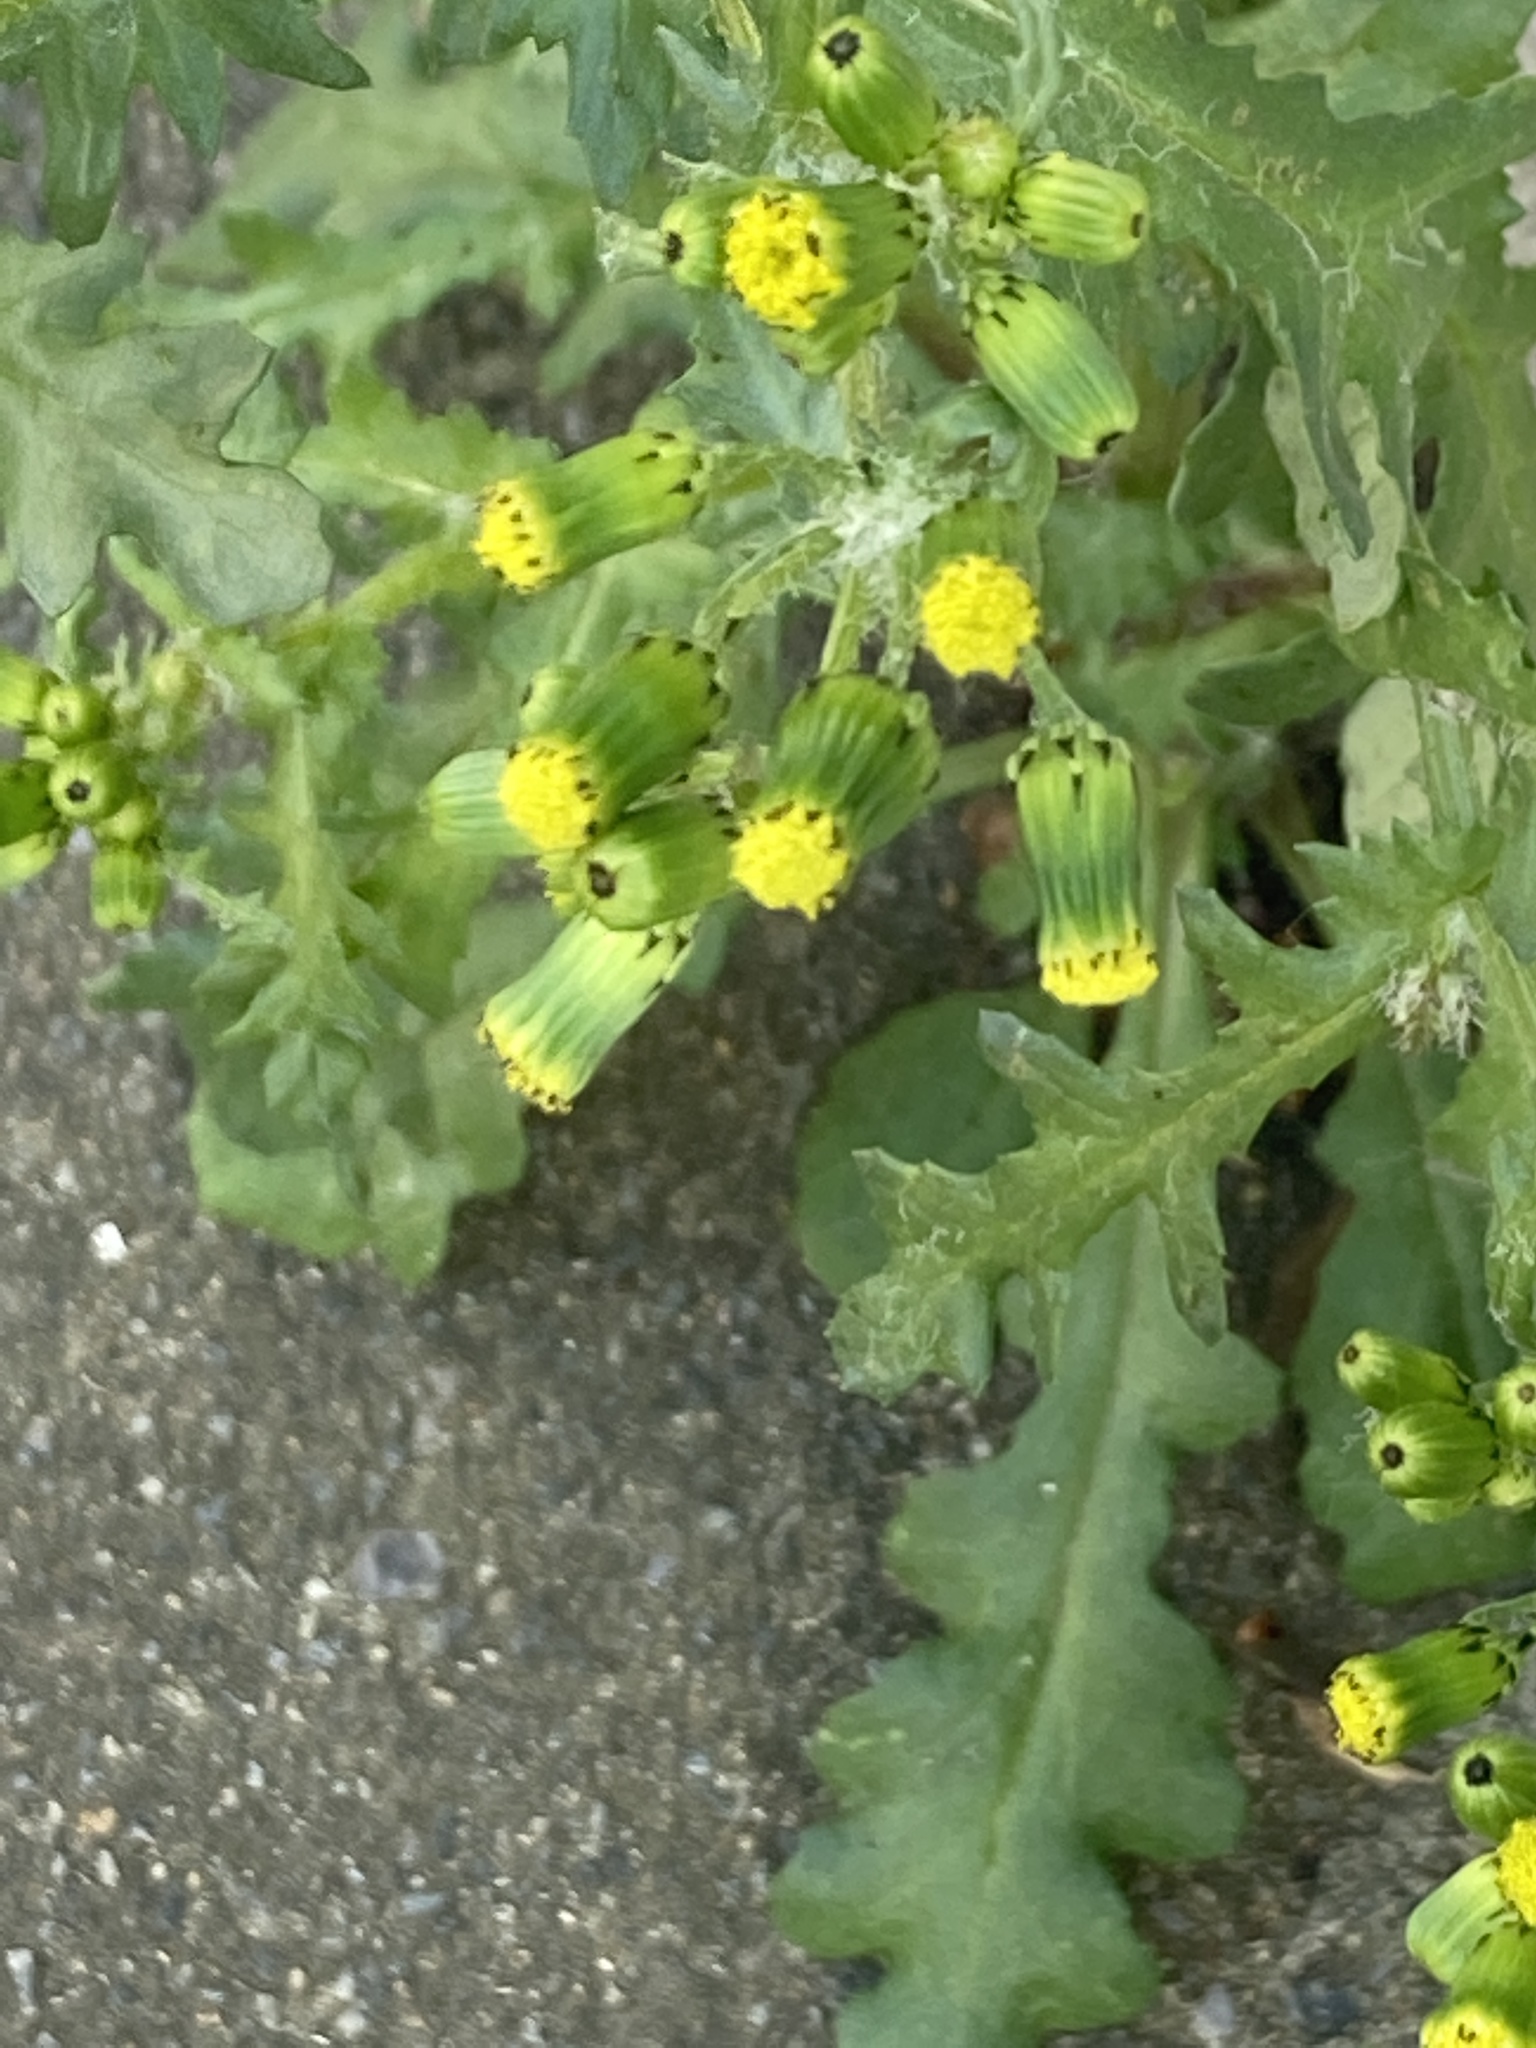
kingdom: Plantae
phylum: Tracheophyta
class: Magnoliopsida
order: Asterales
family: Asteraceae
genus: Senecio
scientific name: Senecio vulgaris
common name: Old-man-in-the-spring
